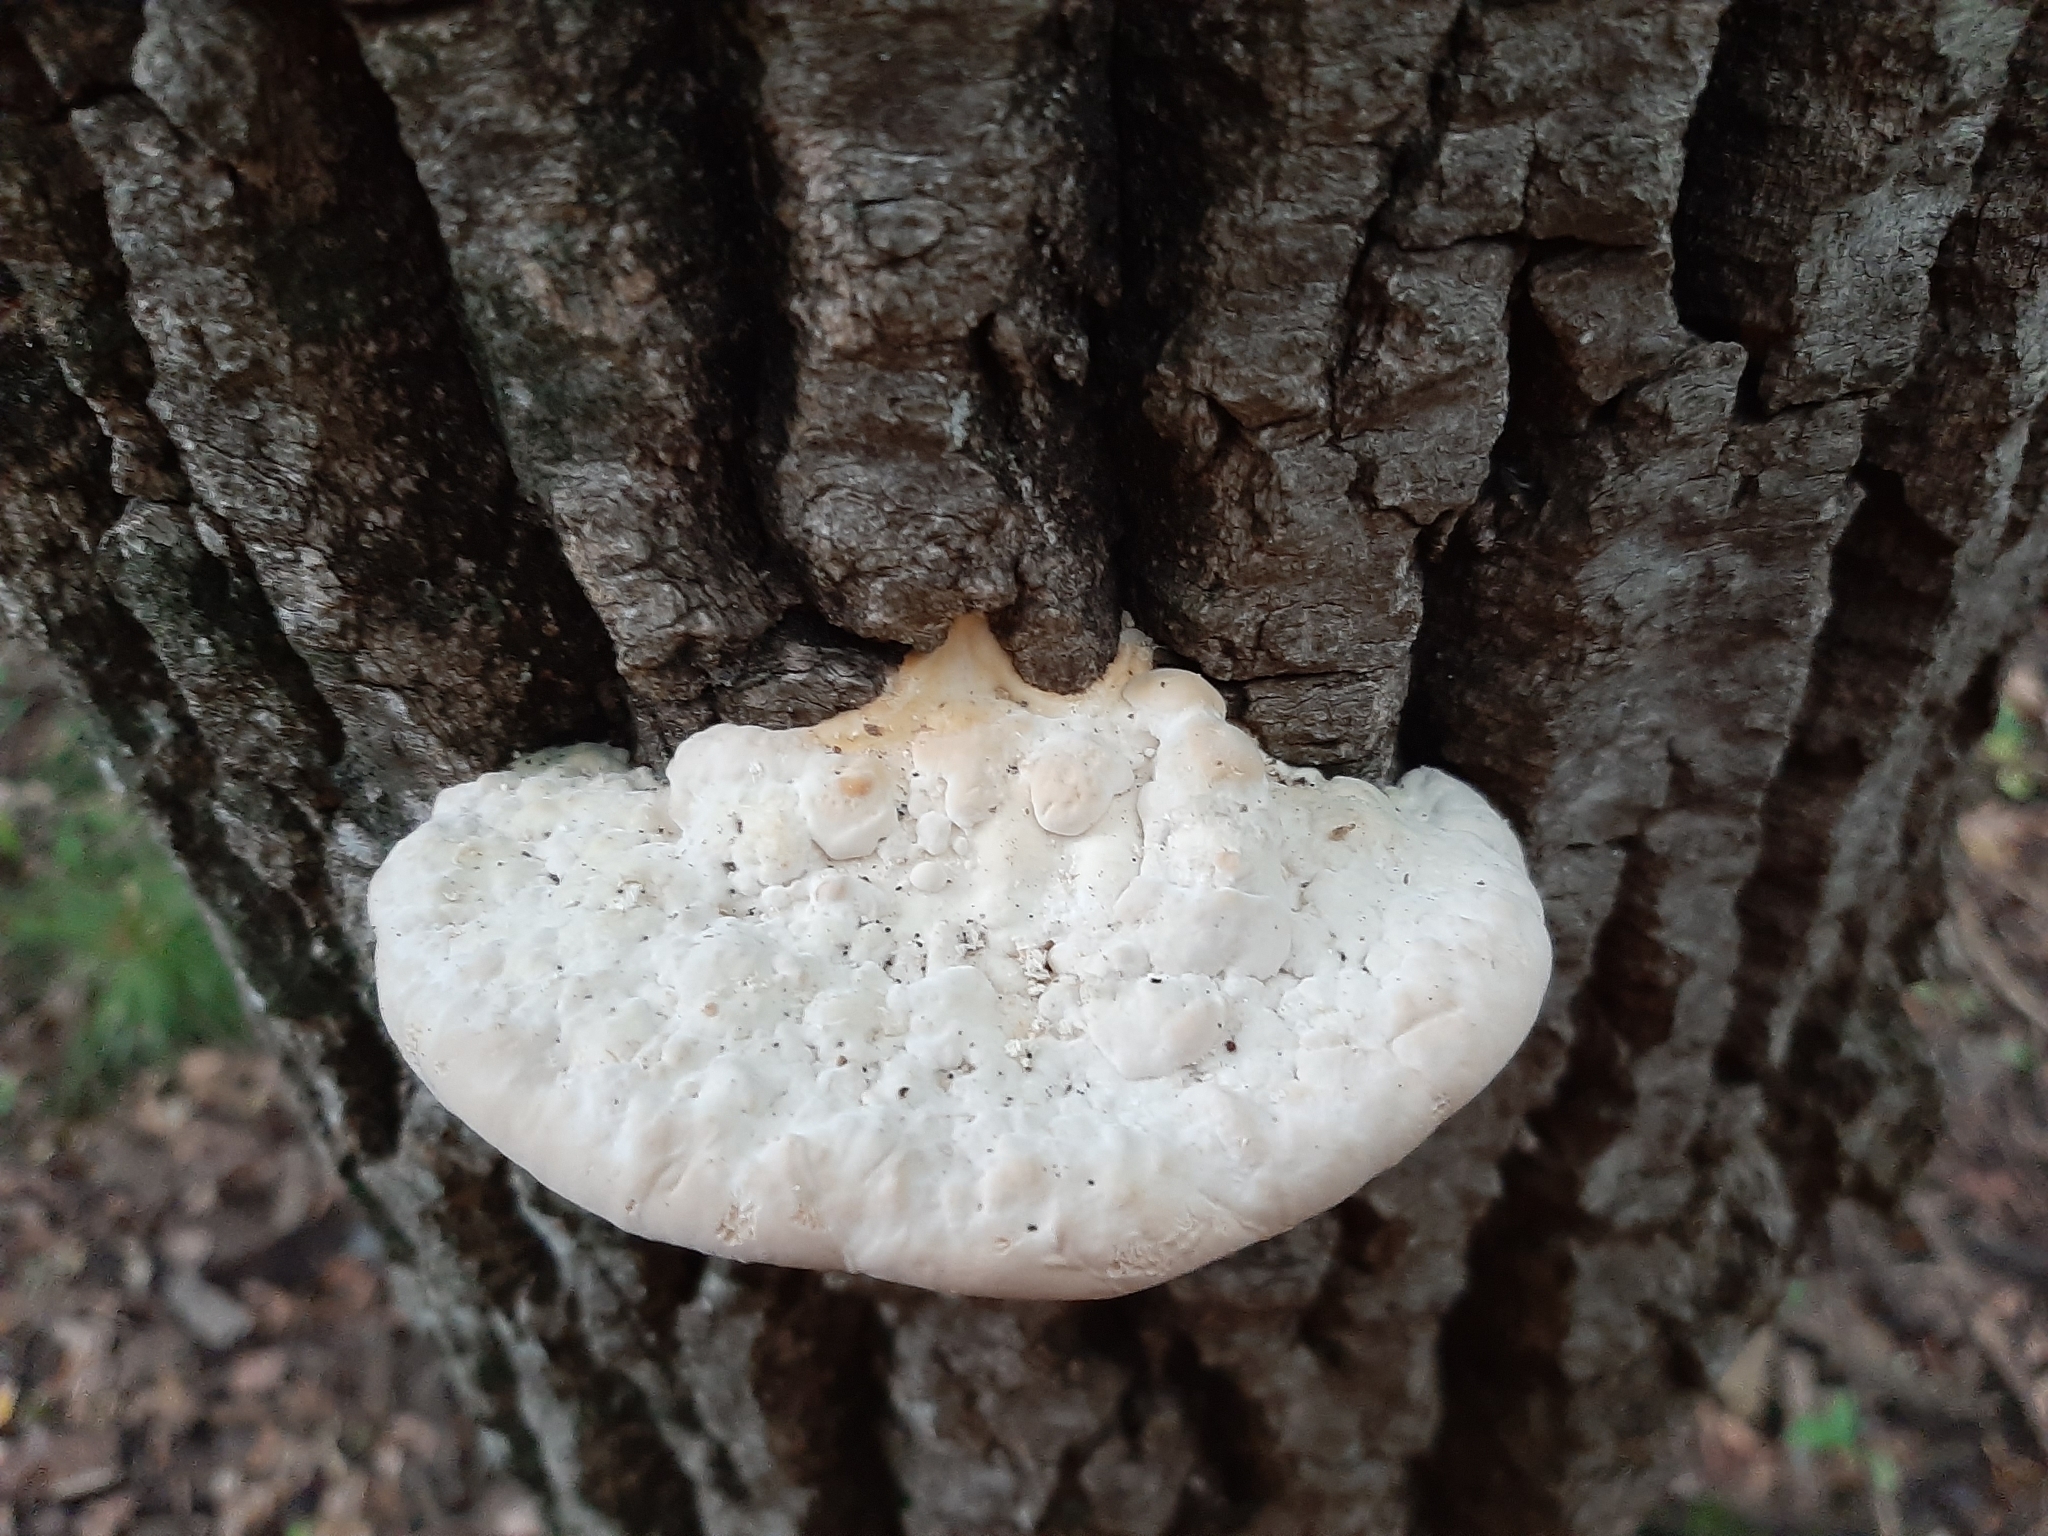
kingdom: Fungi
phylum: Basidiomycota
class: Agaricomycetes
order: Polyporales
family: Polyporaceae
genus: Trametes
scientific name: Trametes gibbosa
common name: Lumpy bracket
